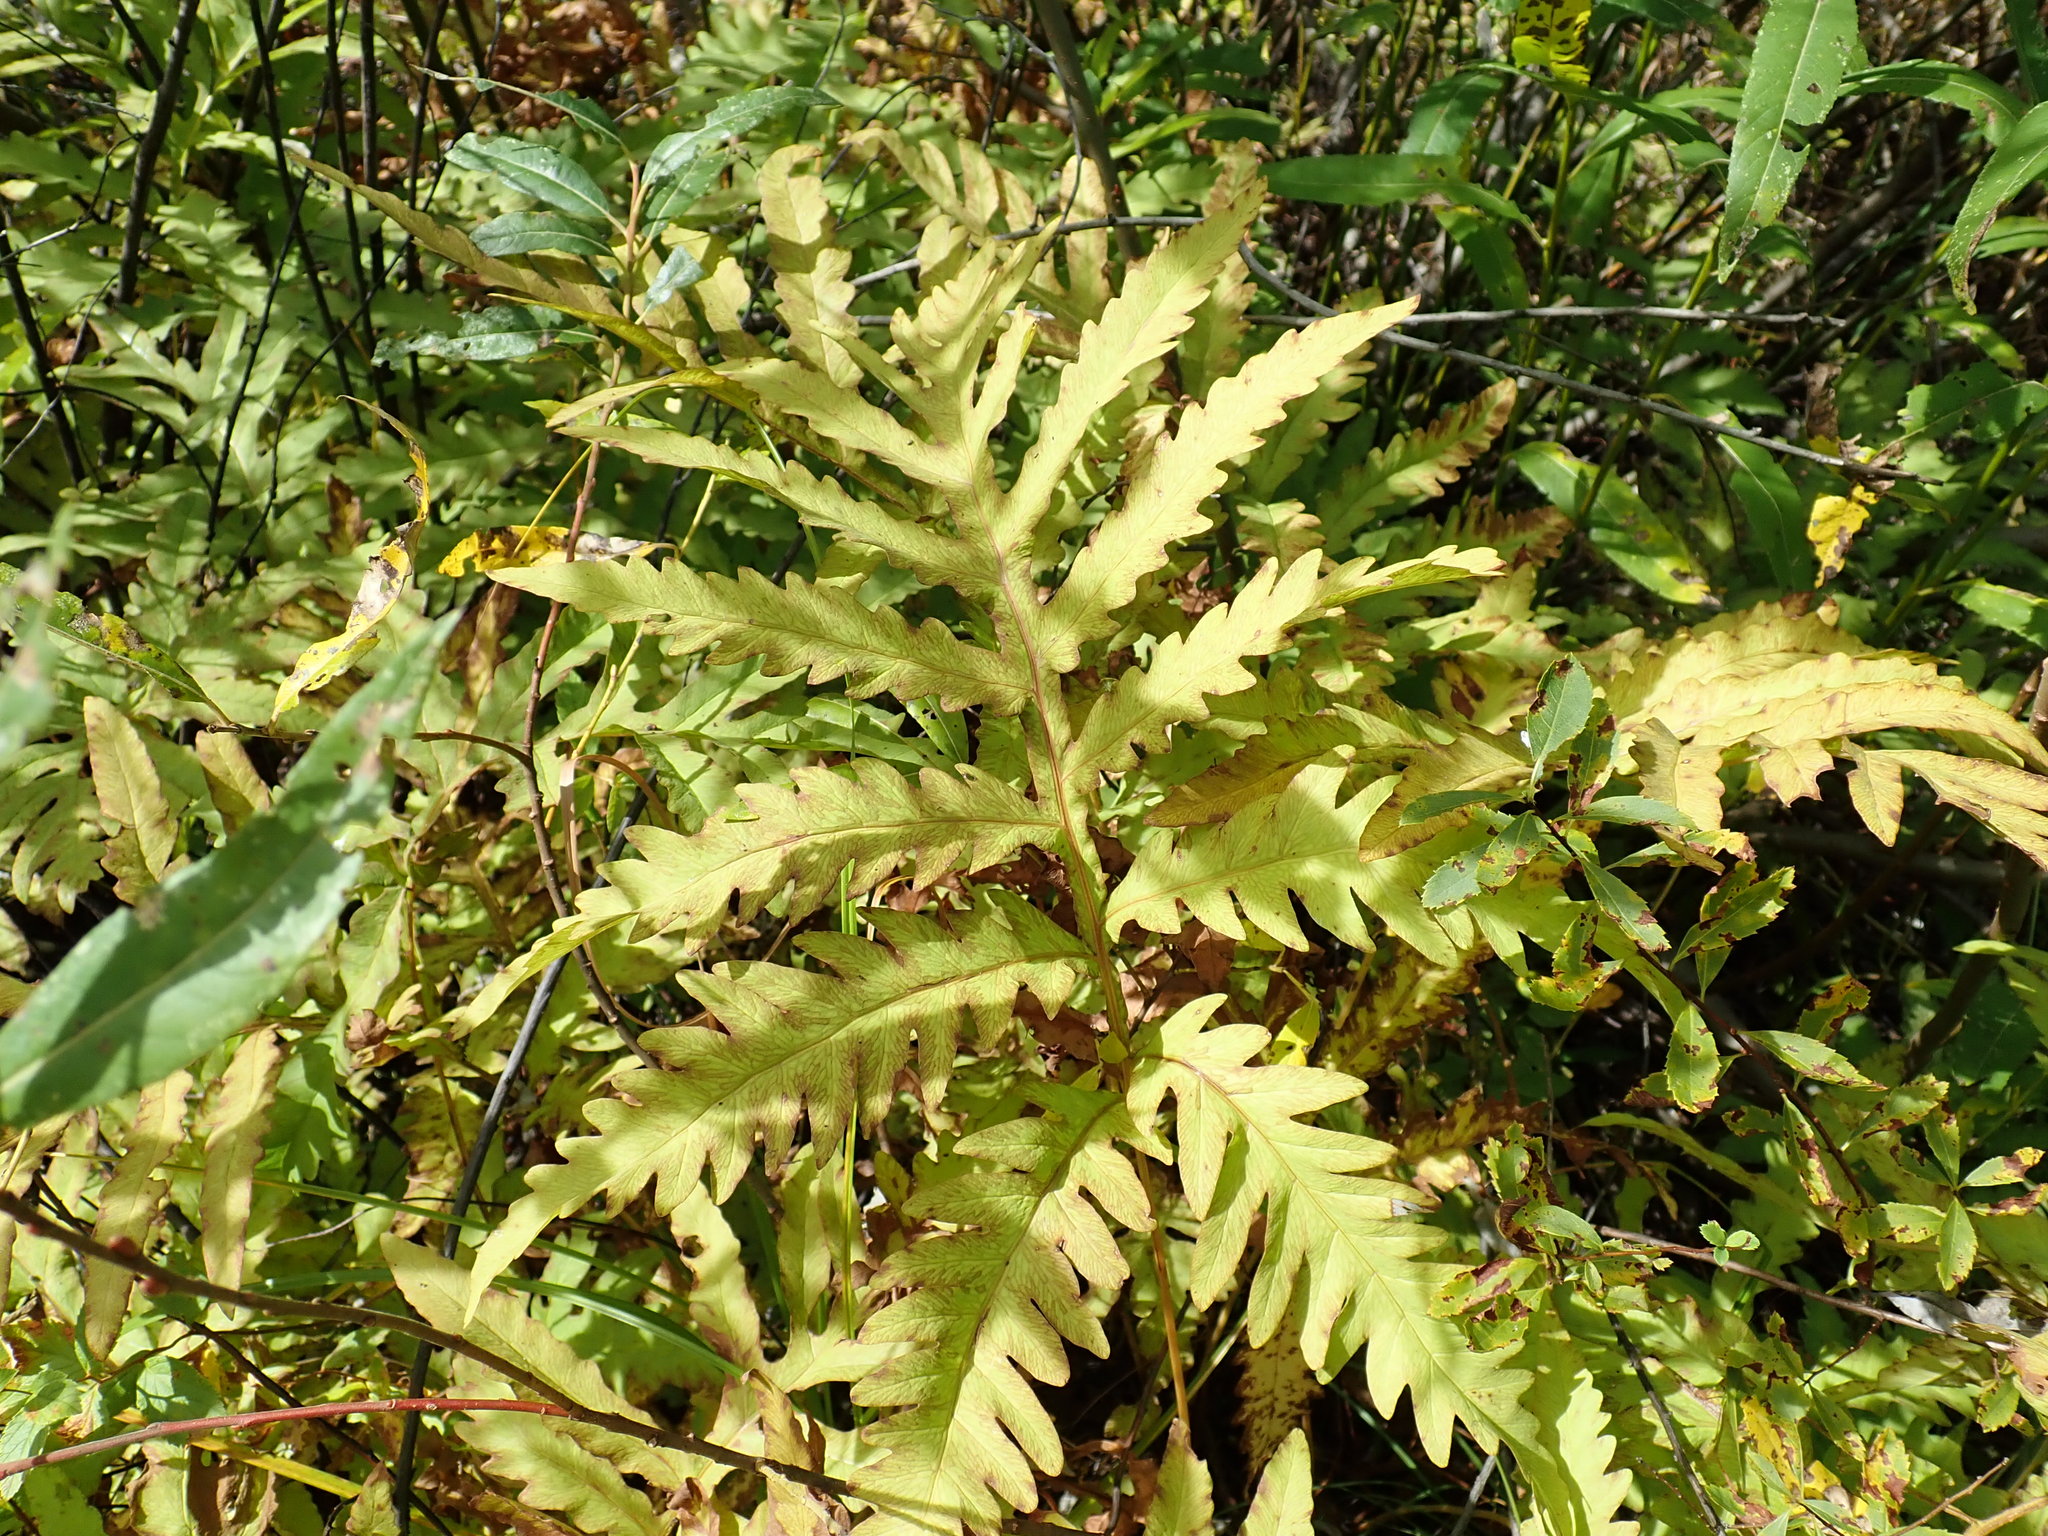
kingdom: Plantae
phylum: Tracheophyta
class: Polypodiopsida
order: Polypodiales
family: Onocleaceae
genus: Onoclea
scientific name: Onoclea sensibilis
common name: Sensitive fern
